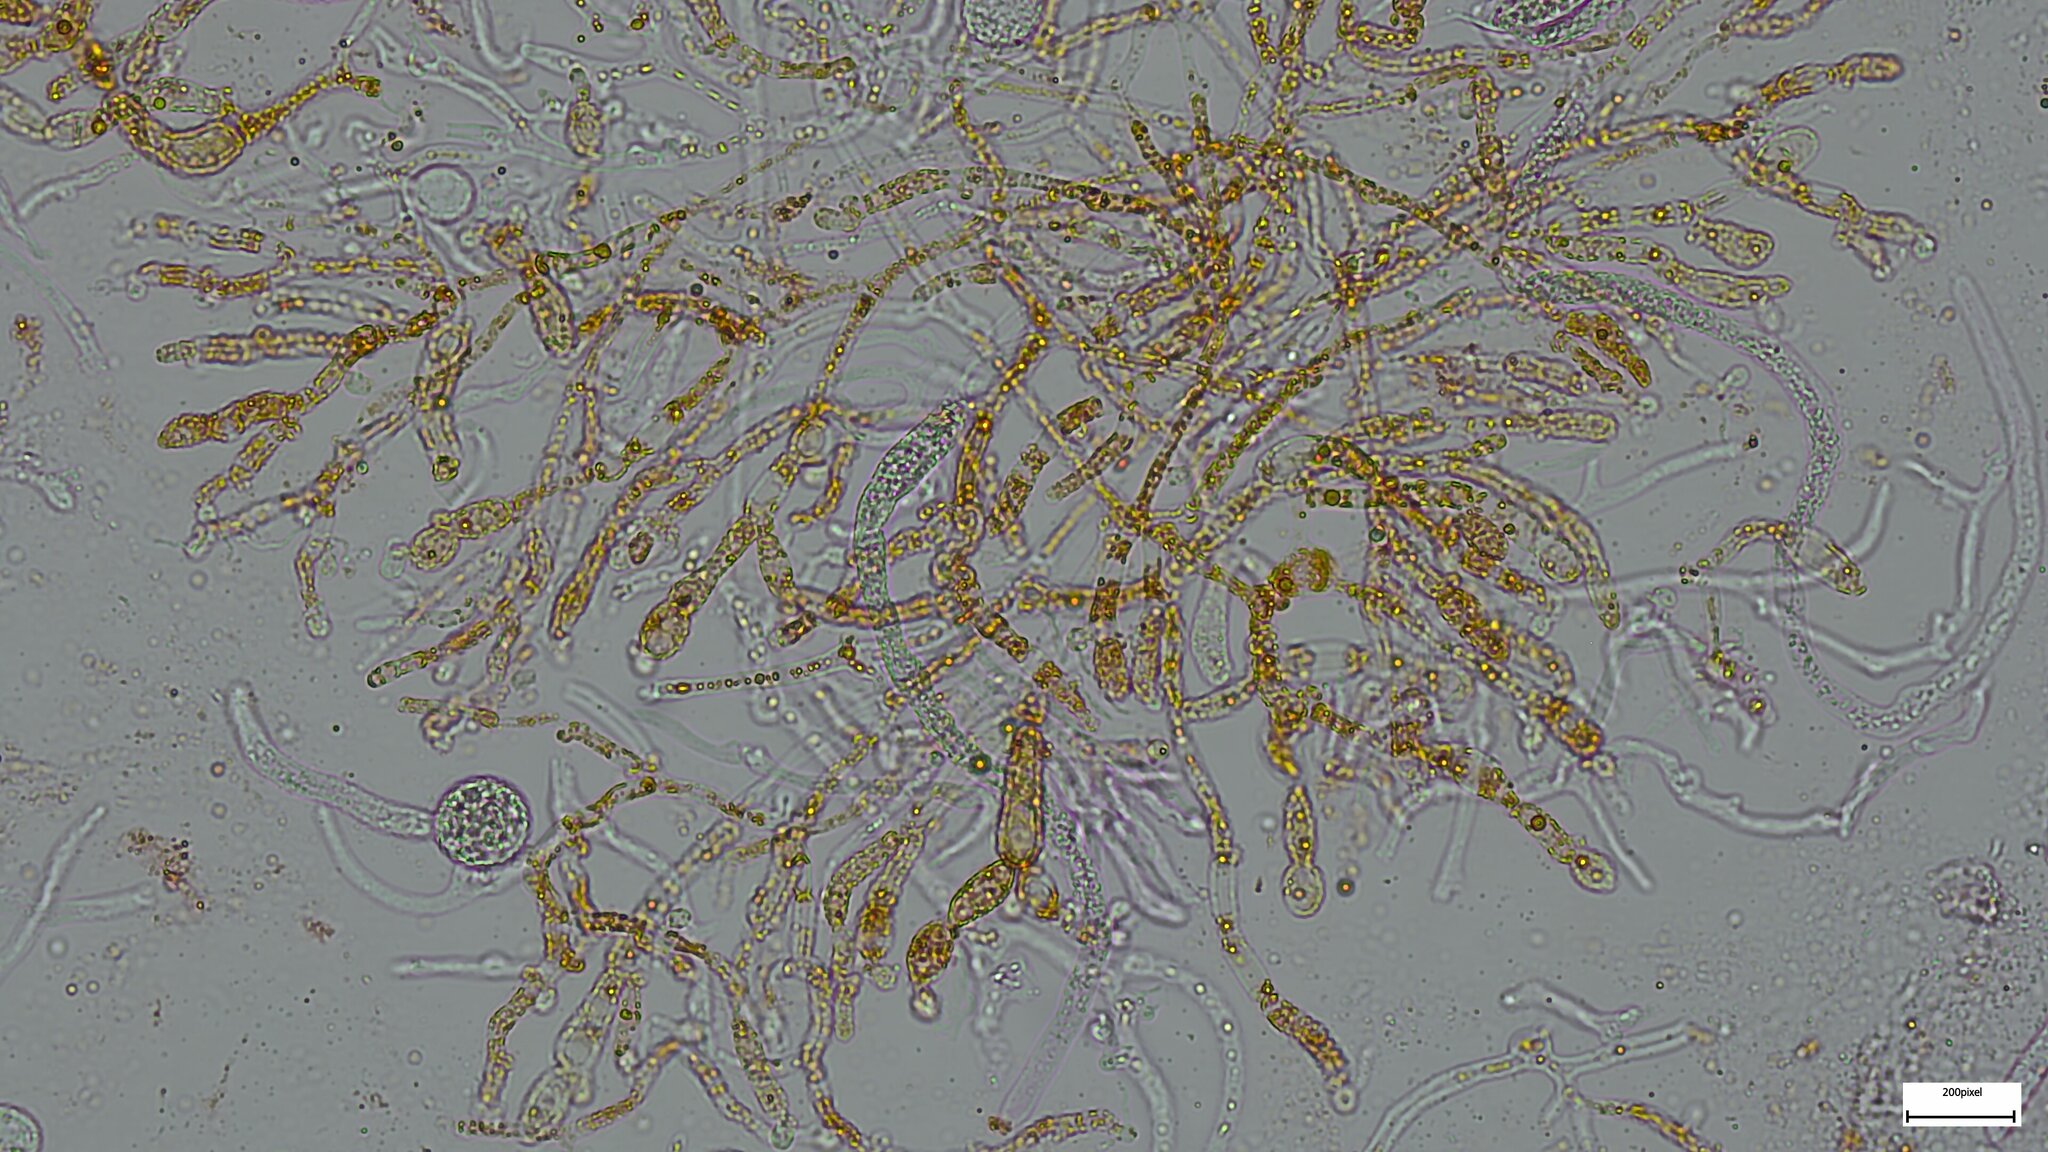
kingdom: Fungi
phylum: Basidiomycota
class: Tremellomycetes
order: Tremellales
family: Tremellaceae
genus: Tremella
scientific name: Tremella mesenterica
